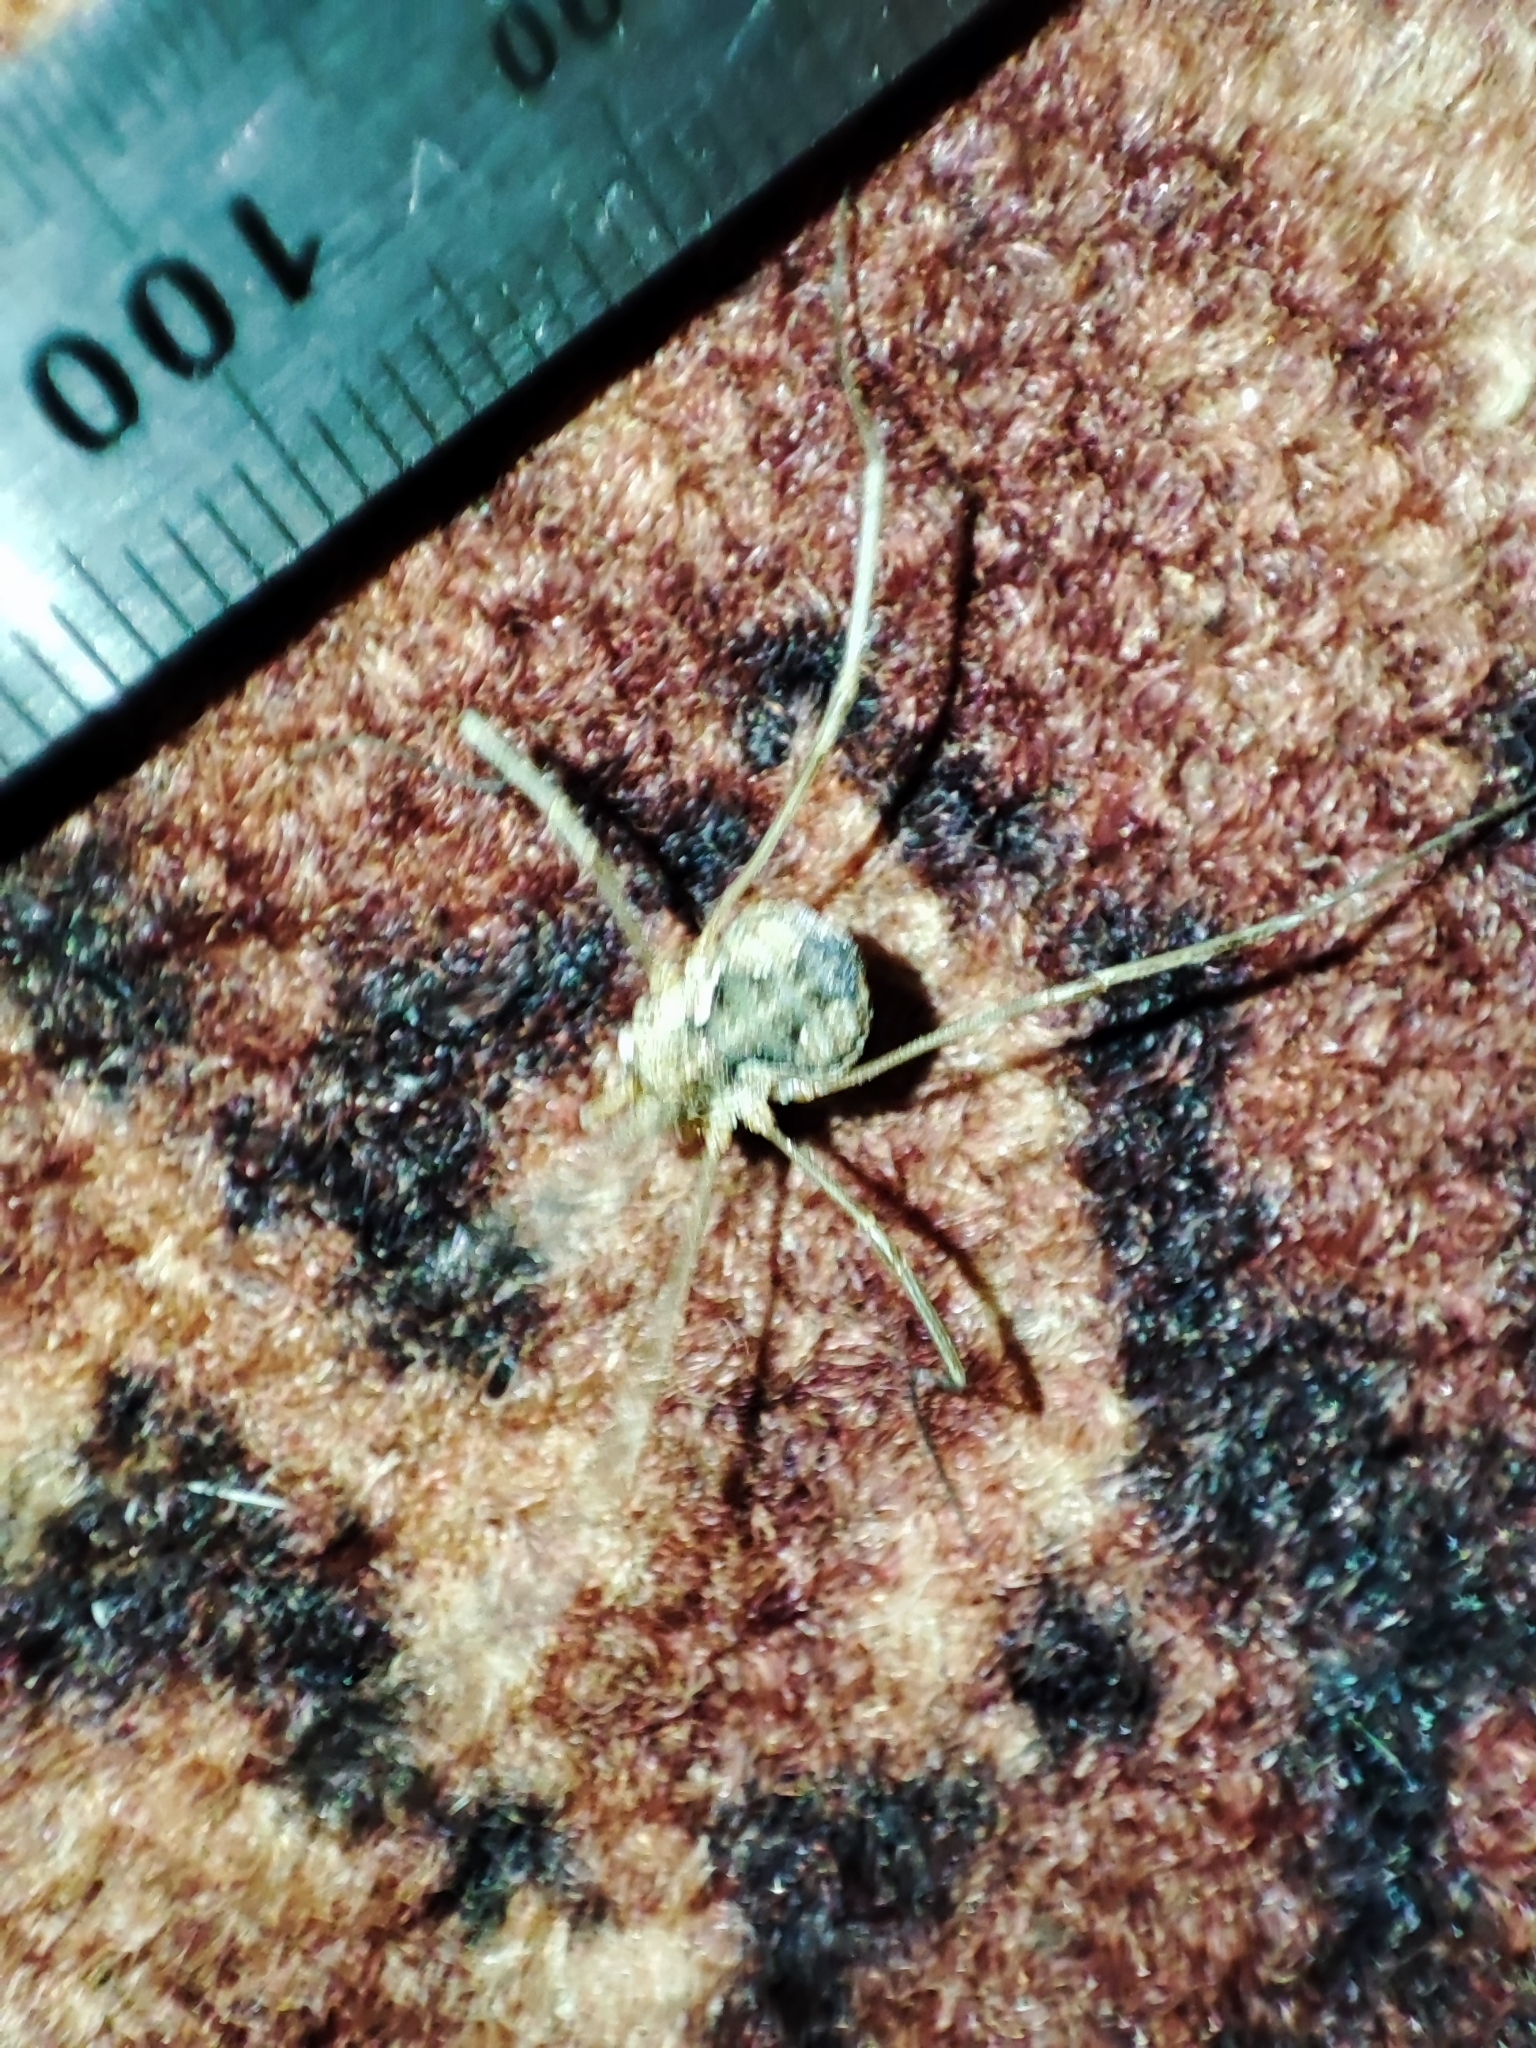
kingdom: Animalia
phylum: Arthropoda
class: Arachnida
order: Opiliones
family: Phalangiidae
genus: Phalangium
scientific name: Phalangium opilio
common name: Daddy longleg
